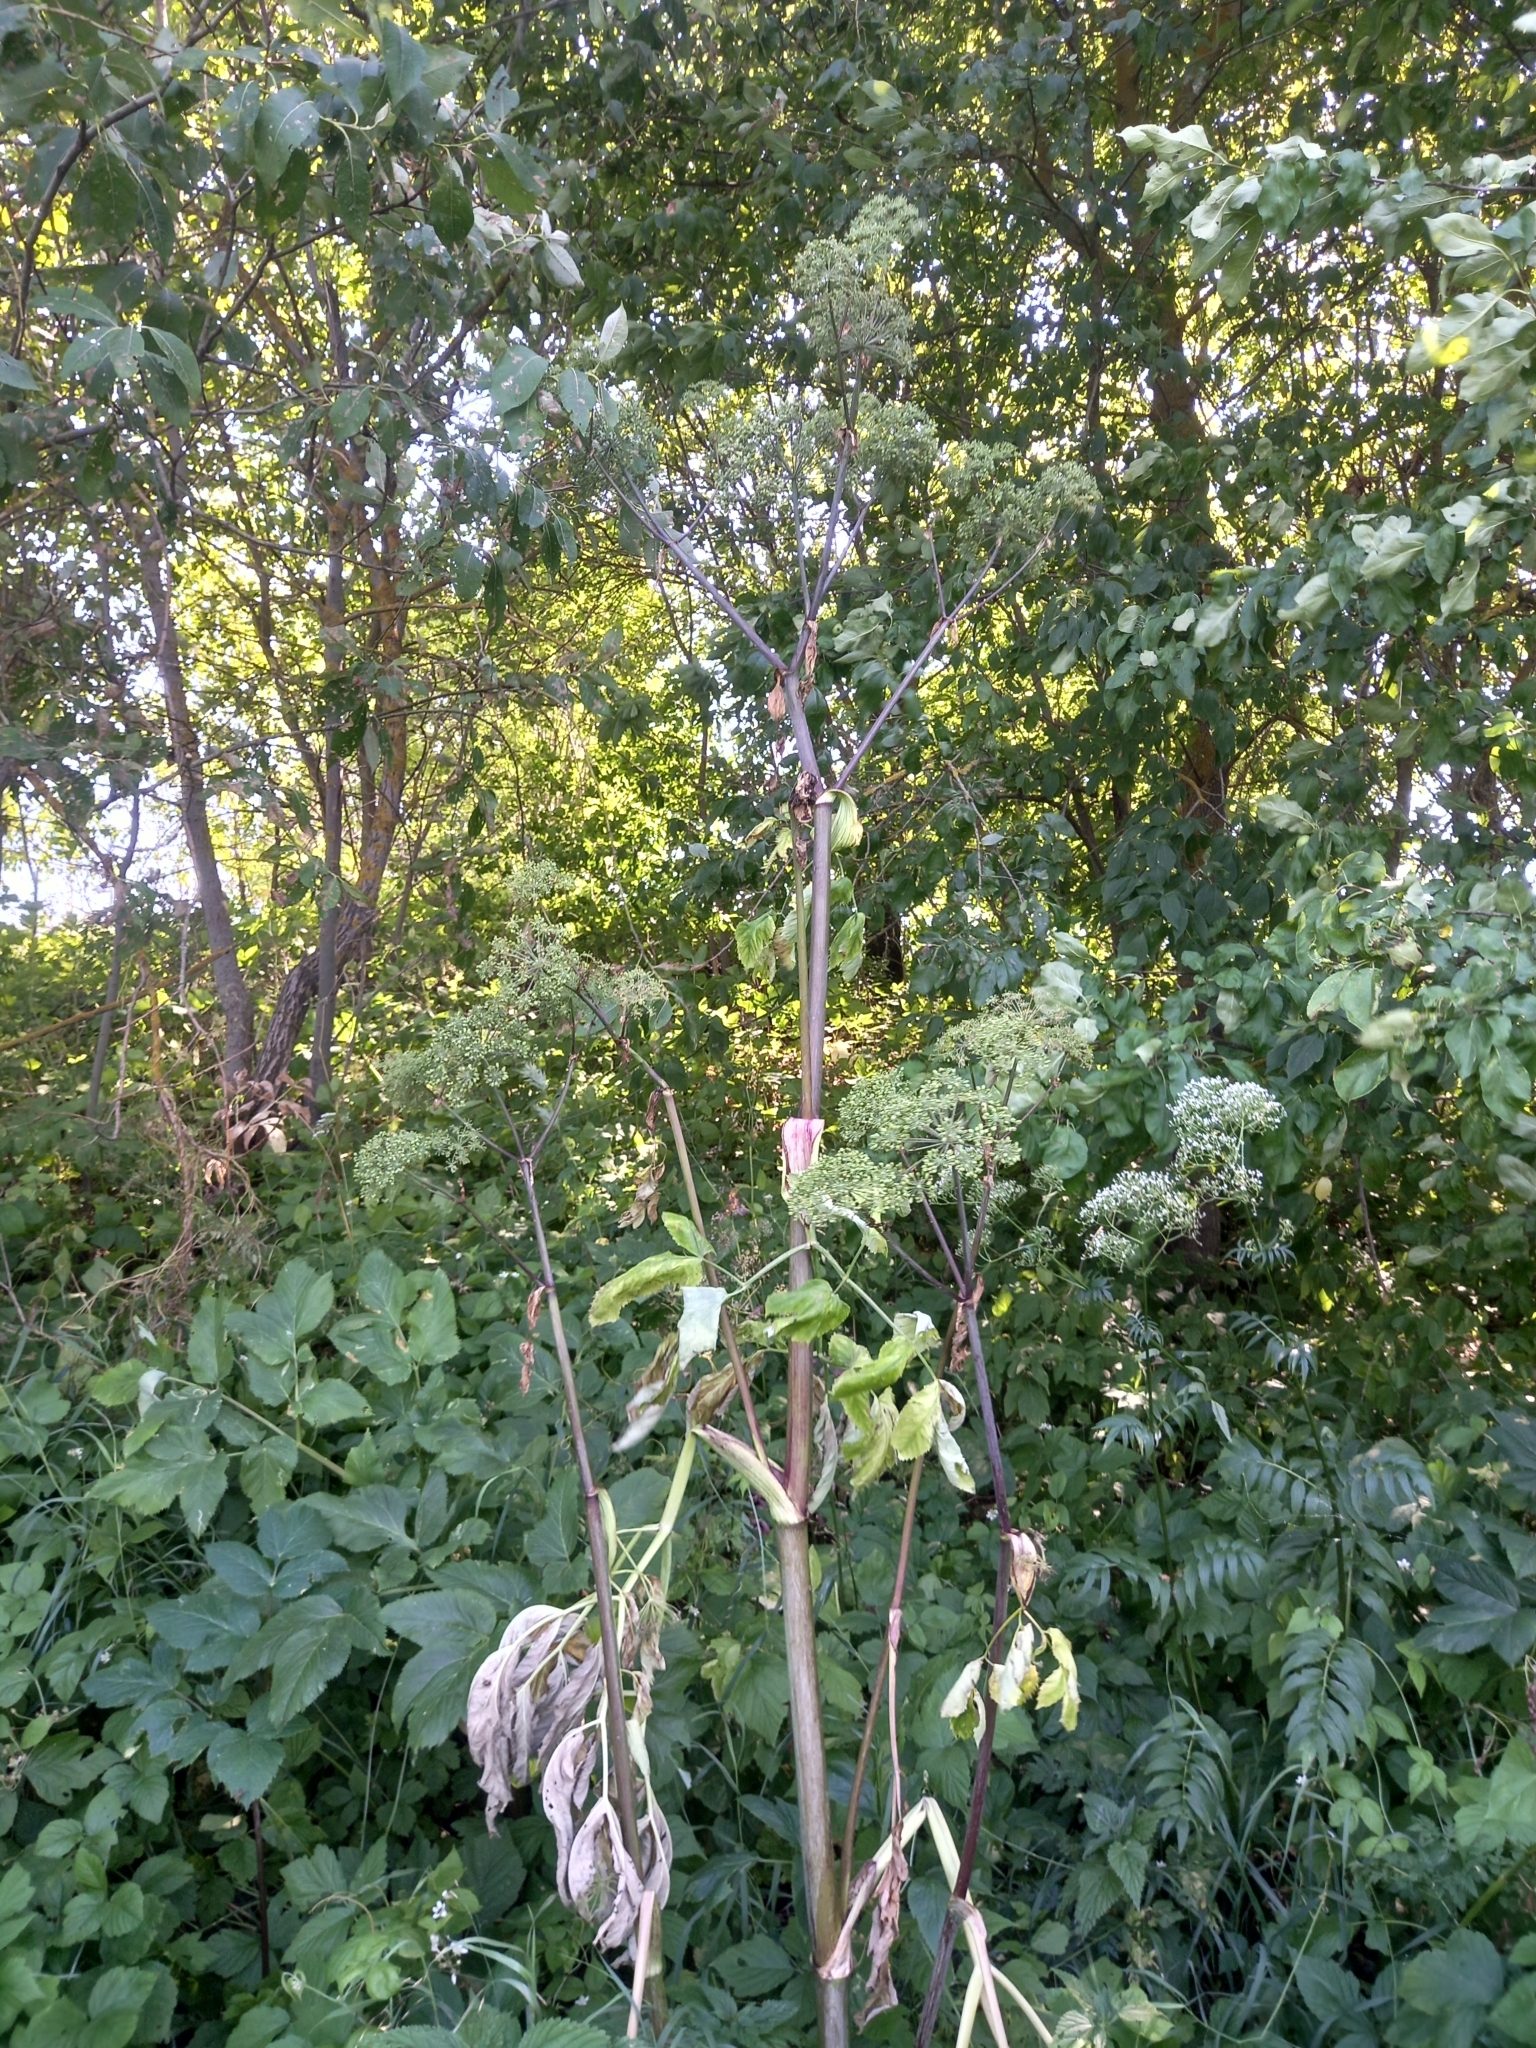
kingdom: Plantae
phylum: Tracheophyta
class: Magnoliopsida
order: Apiales
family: Apiaceae
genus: Heracleum
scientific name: Heracleum sphondylium
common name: Hogweed
